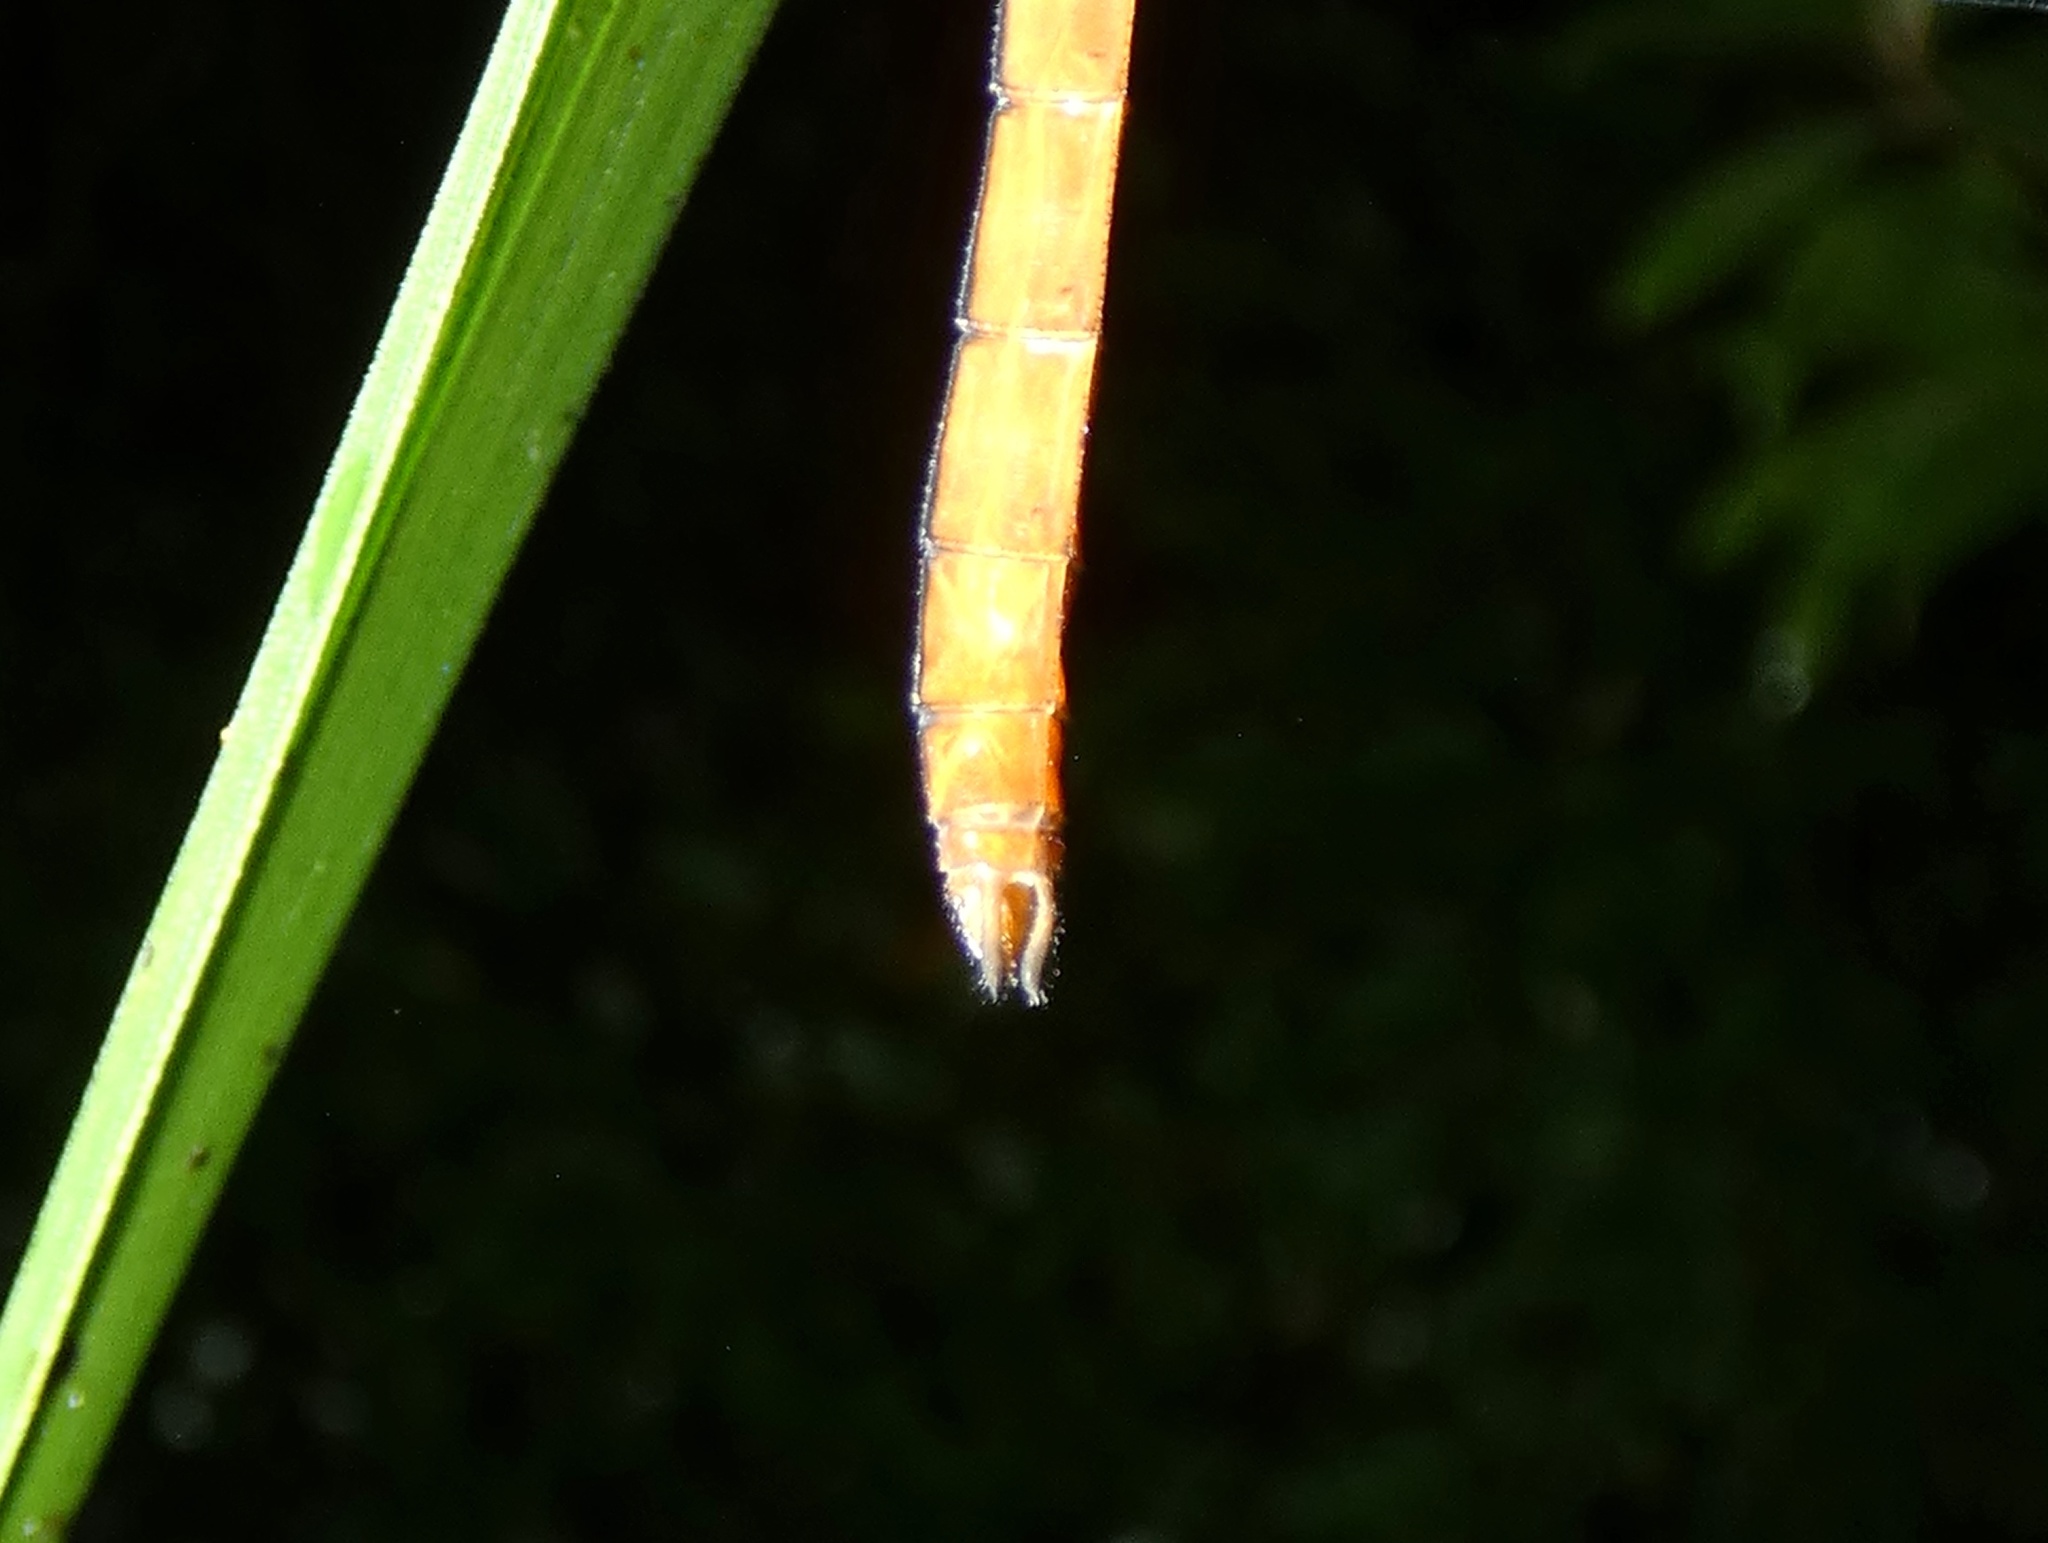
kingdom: Animalia
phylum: Arthropoda
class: Insecta
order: Odonata
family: Libellulidae
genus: Orthemis
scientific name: Orthemis discolor
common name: Carmine skimmer
